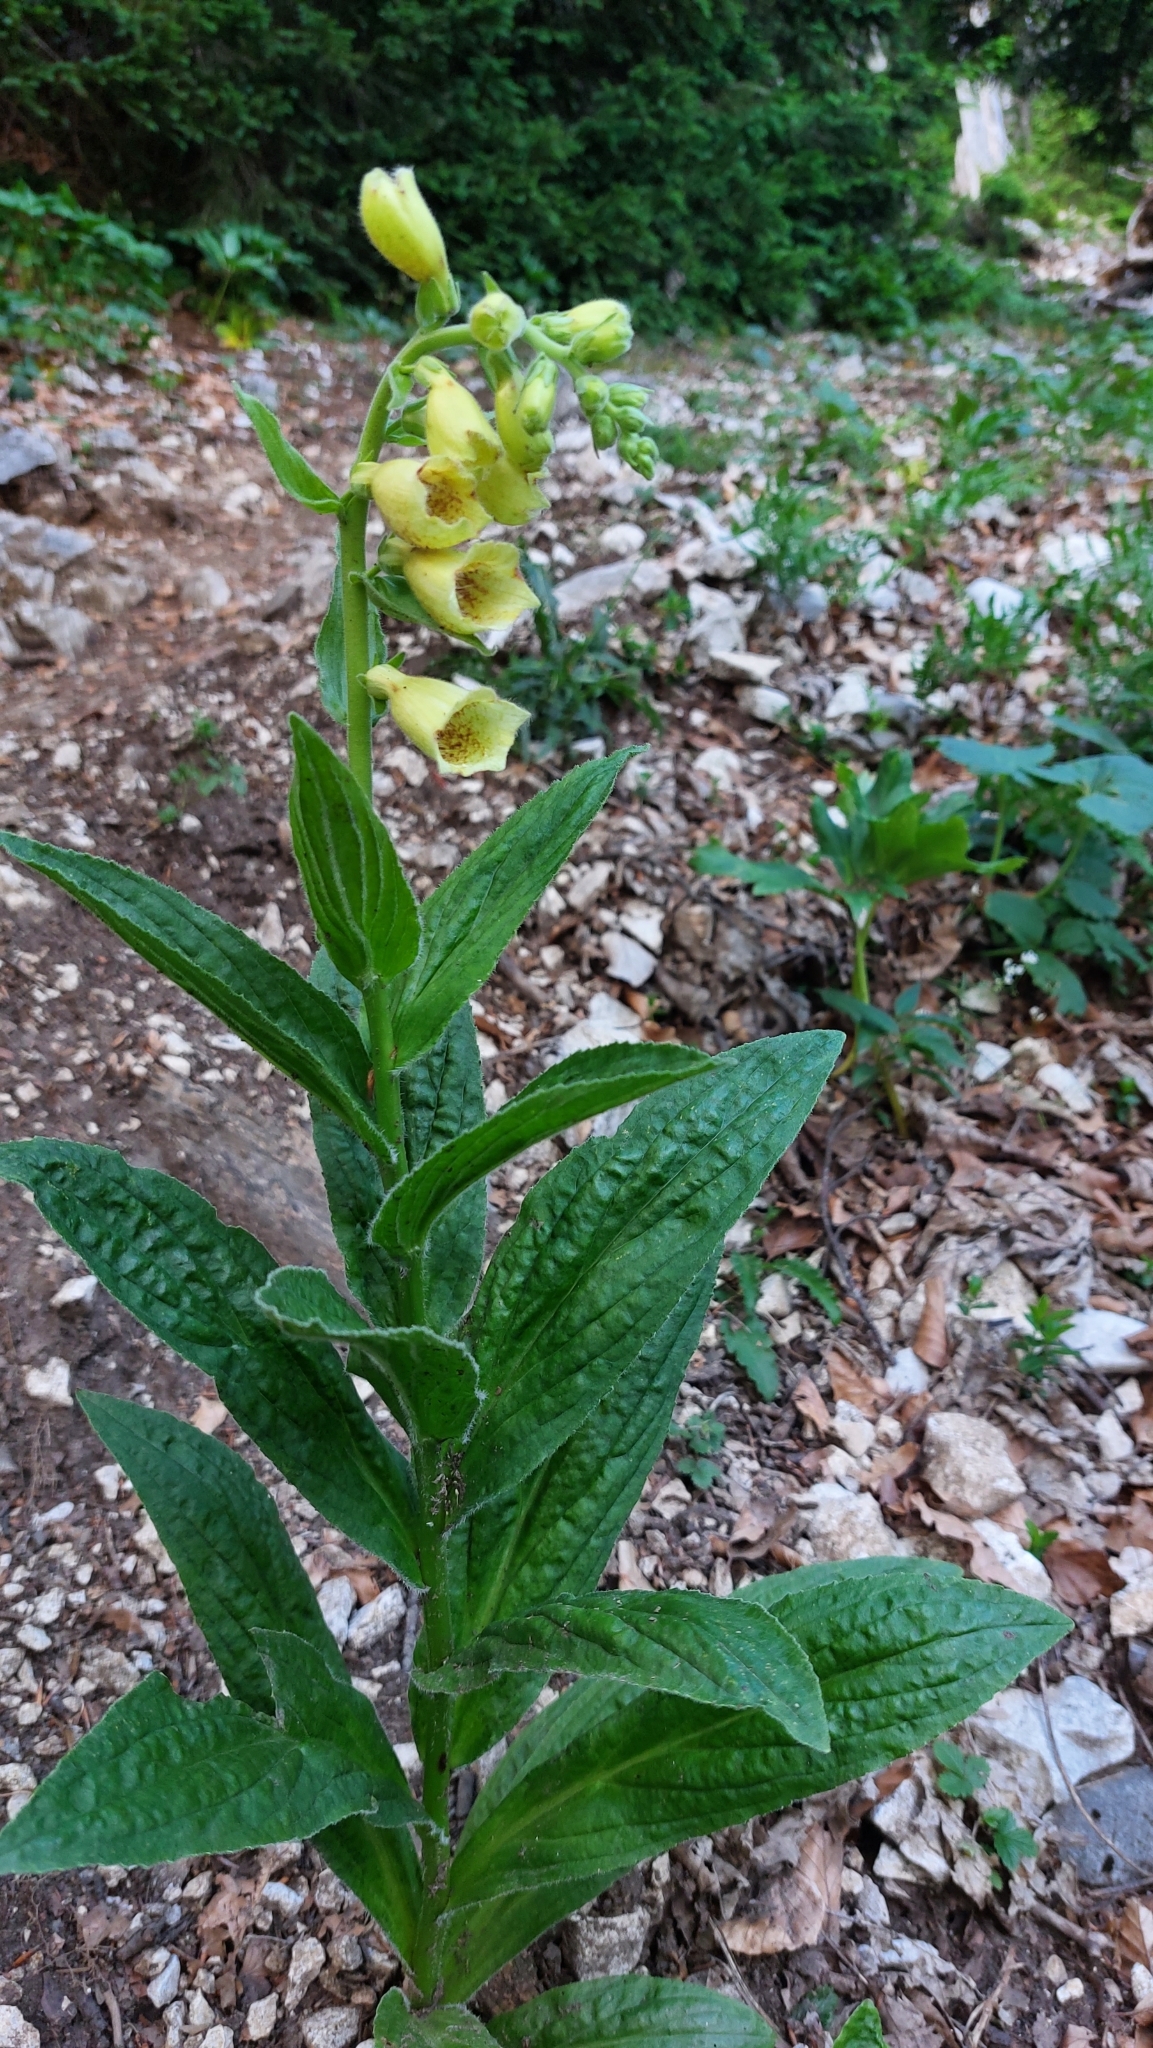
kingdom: Plantae
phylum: Tracheophyta
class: Magnoliopsida
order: Lamiales
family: Plantaginaceae
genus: Digitalis
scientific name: Digitalis grandiflora
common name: Yellow foxglove
